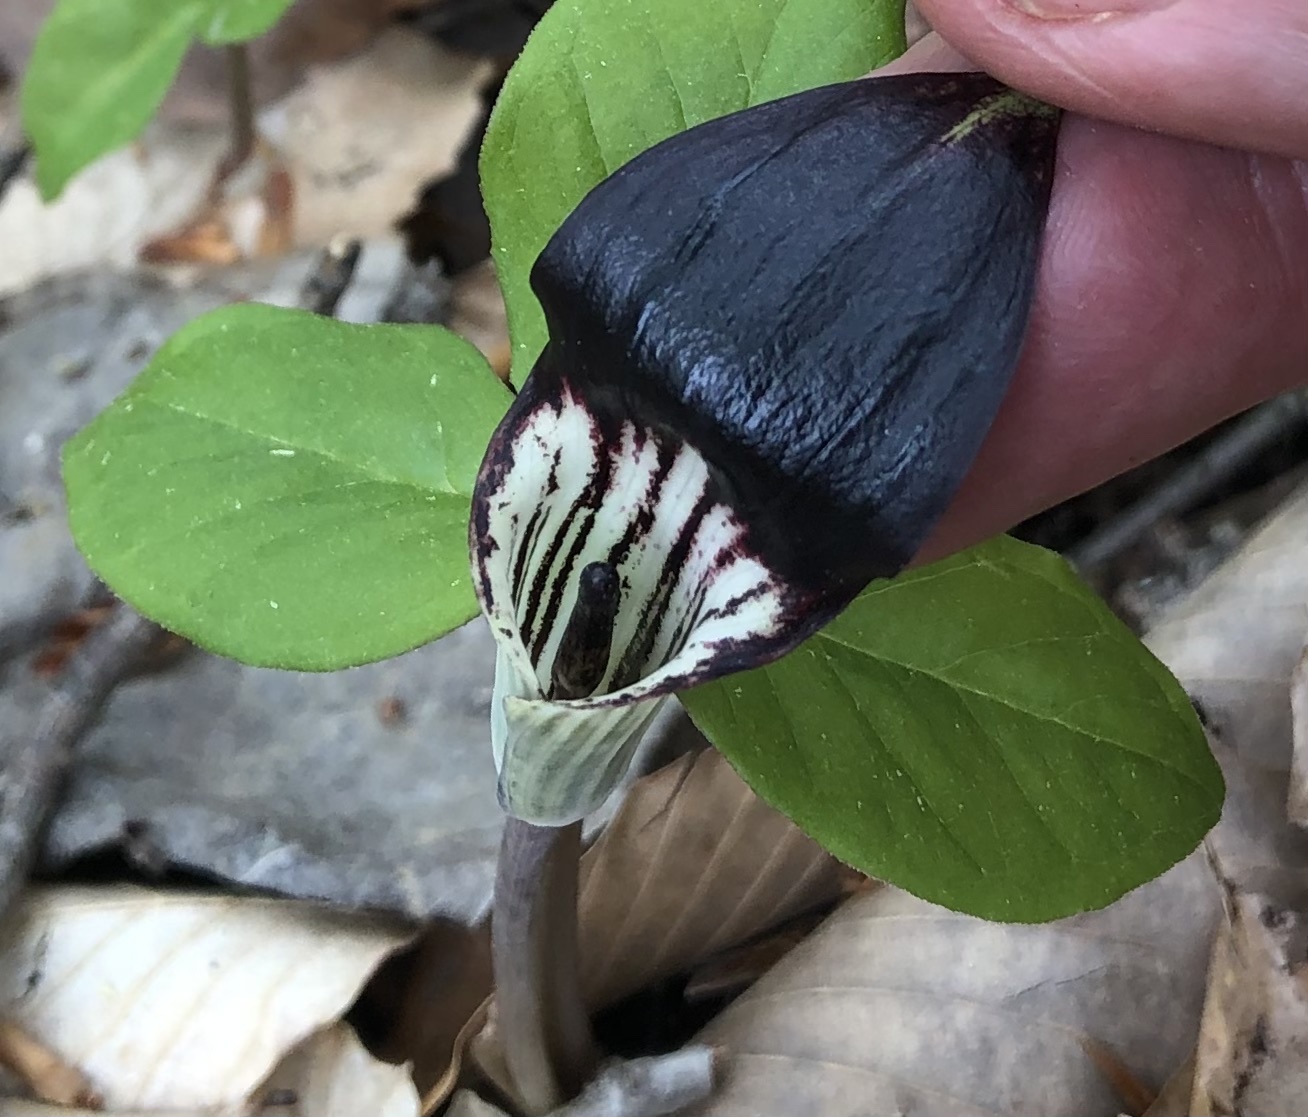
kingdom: Plantae
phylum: Tracheophyta
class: Liliopsida
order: Alismatales
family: Araceae
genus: Arisaema
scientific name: Arisaema triphyllum
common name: Jack-in-the-pulpit
